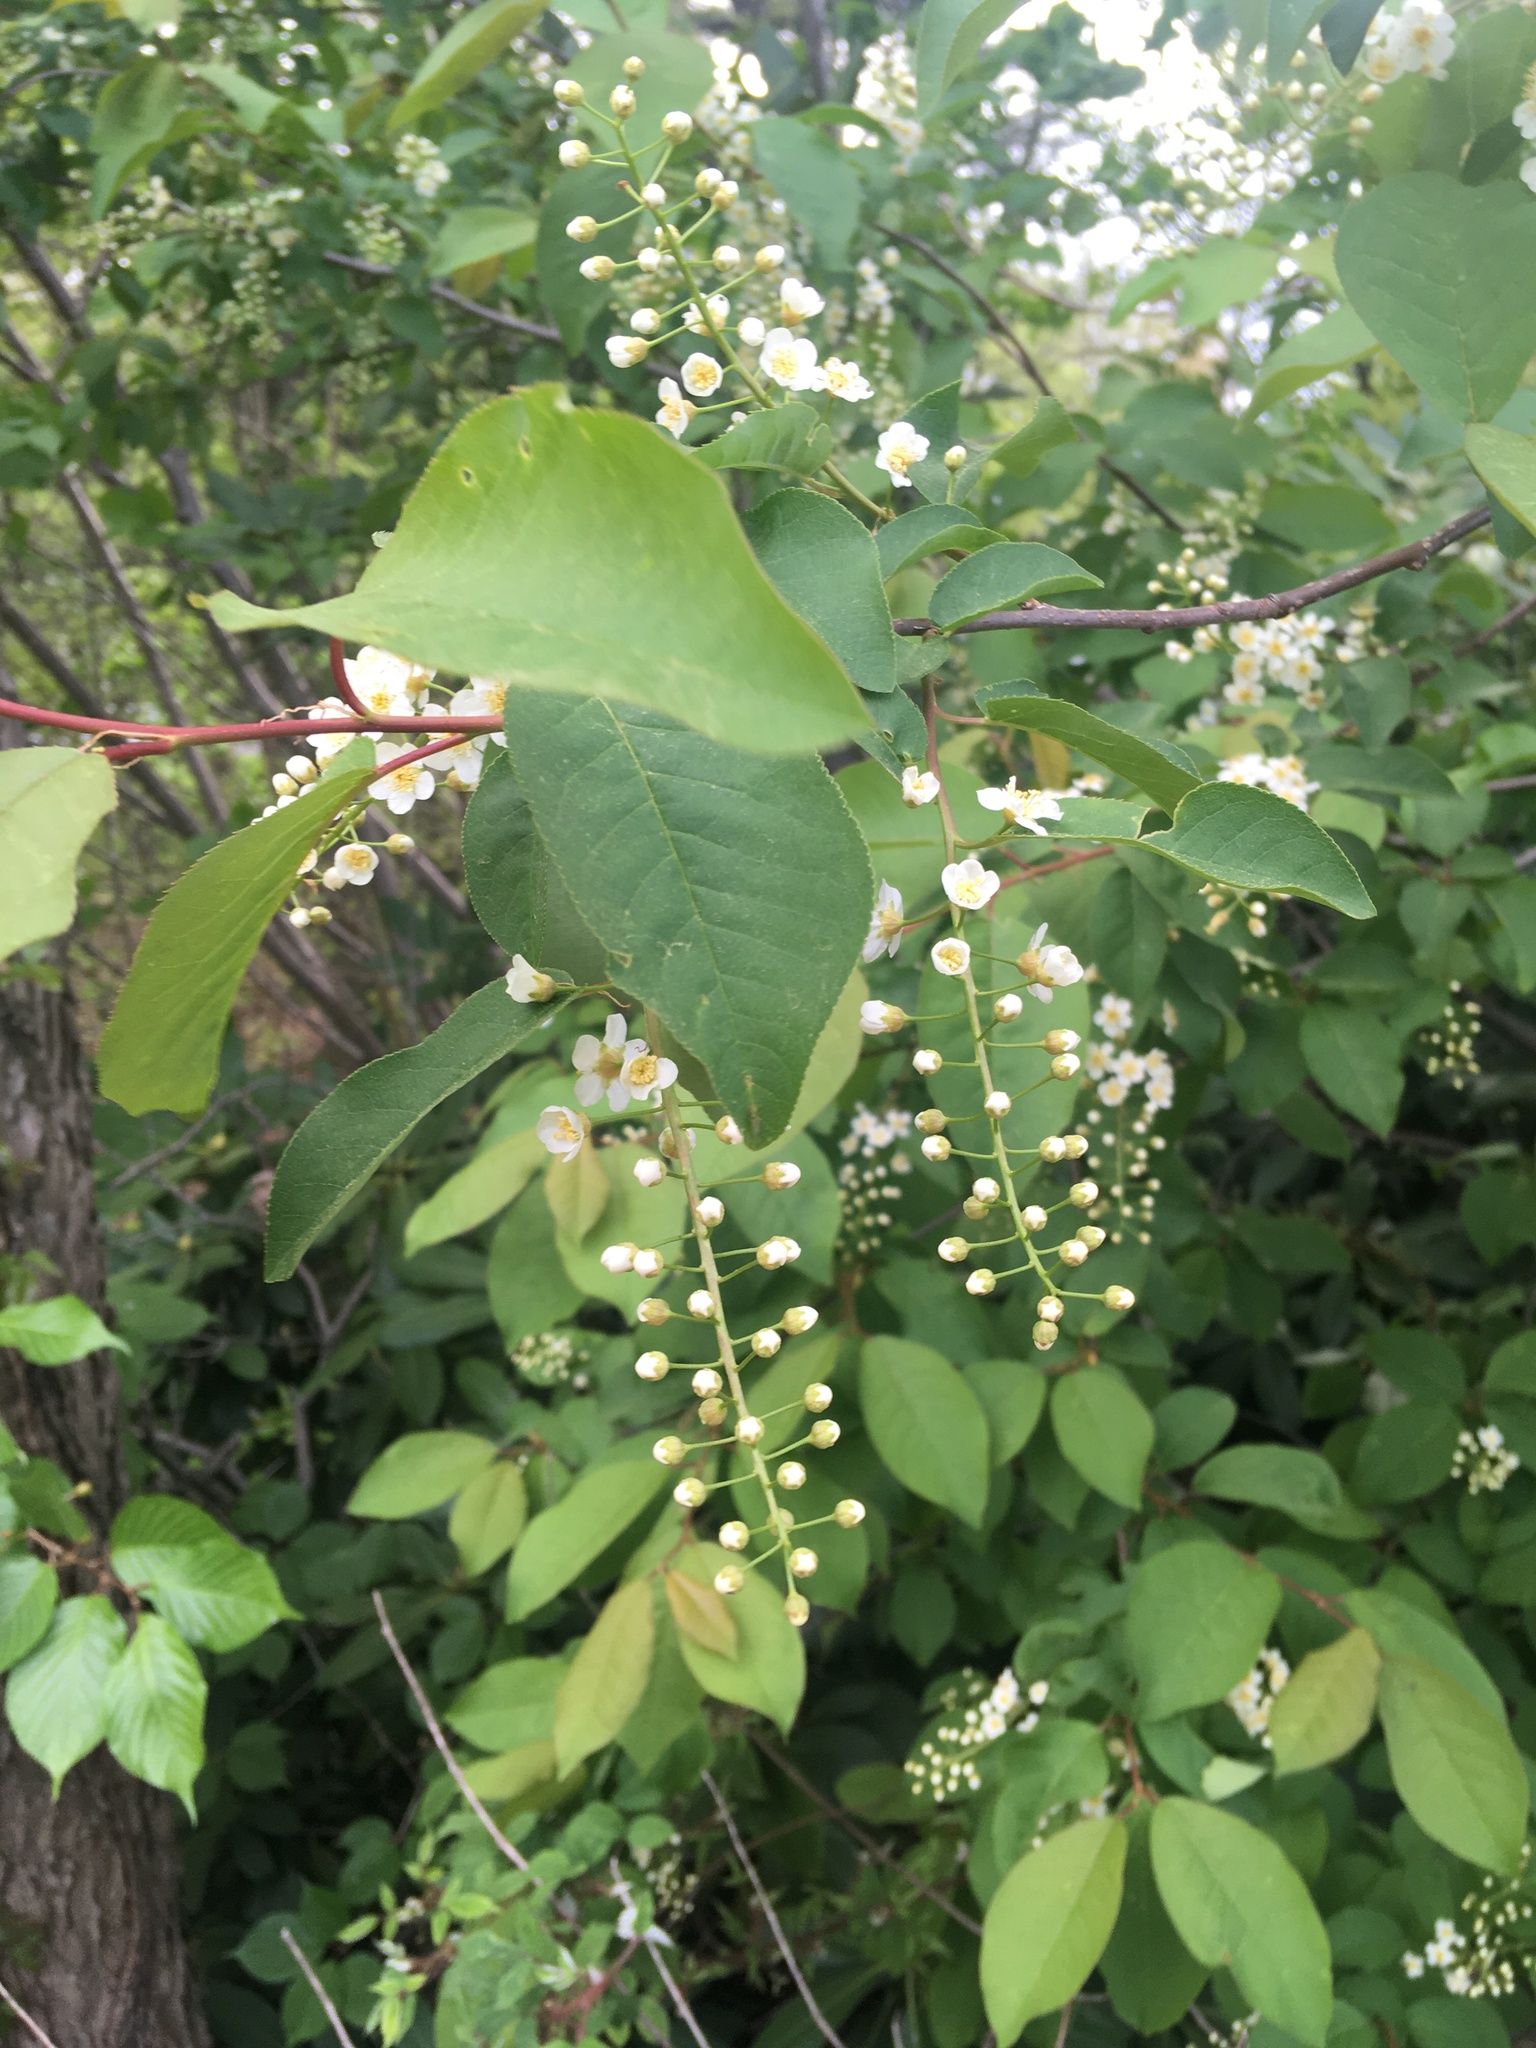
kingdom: Plantae
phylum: Tracheophyta
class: Magnoliopsida
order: Rosales
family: Rosaceae
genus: Prunus
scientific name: Prunus serotina
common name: Black cherry
